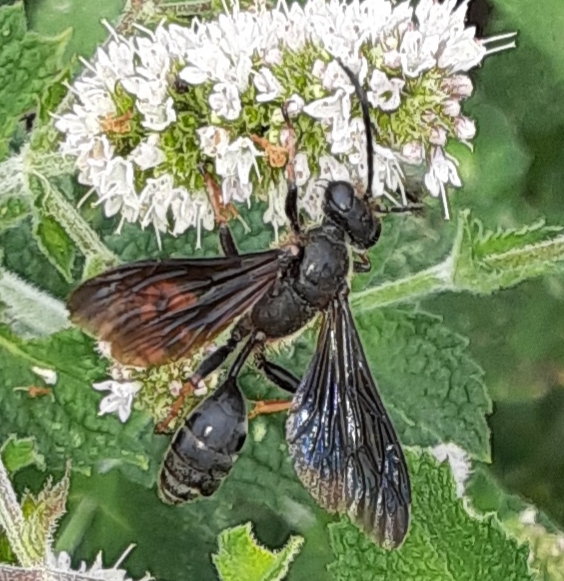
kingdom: Animalia
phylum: Arthropoda
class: Insecta
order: Hymenoptera
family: Sphecidae
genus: Isodontia
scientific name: Isodontia auripes
